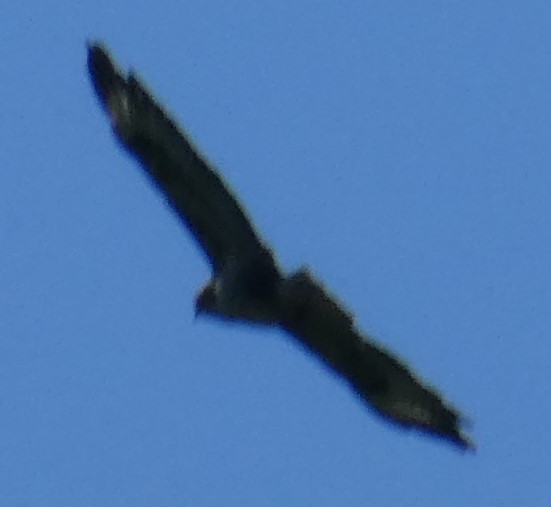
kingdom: Animalia
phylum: Chordata
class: Aves
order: Accipitriformes
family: Accipitridae
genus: Buteo
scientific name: Buteo buteo
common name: Common buzzard
